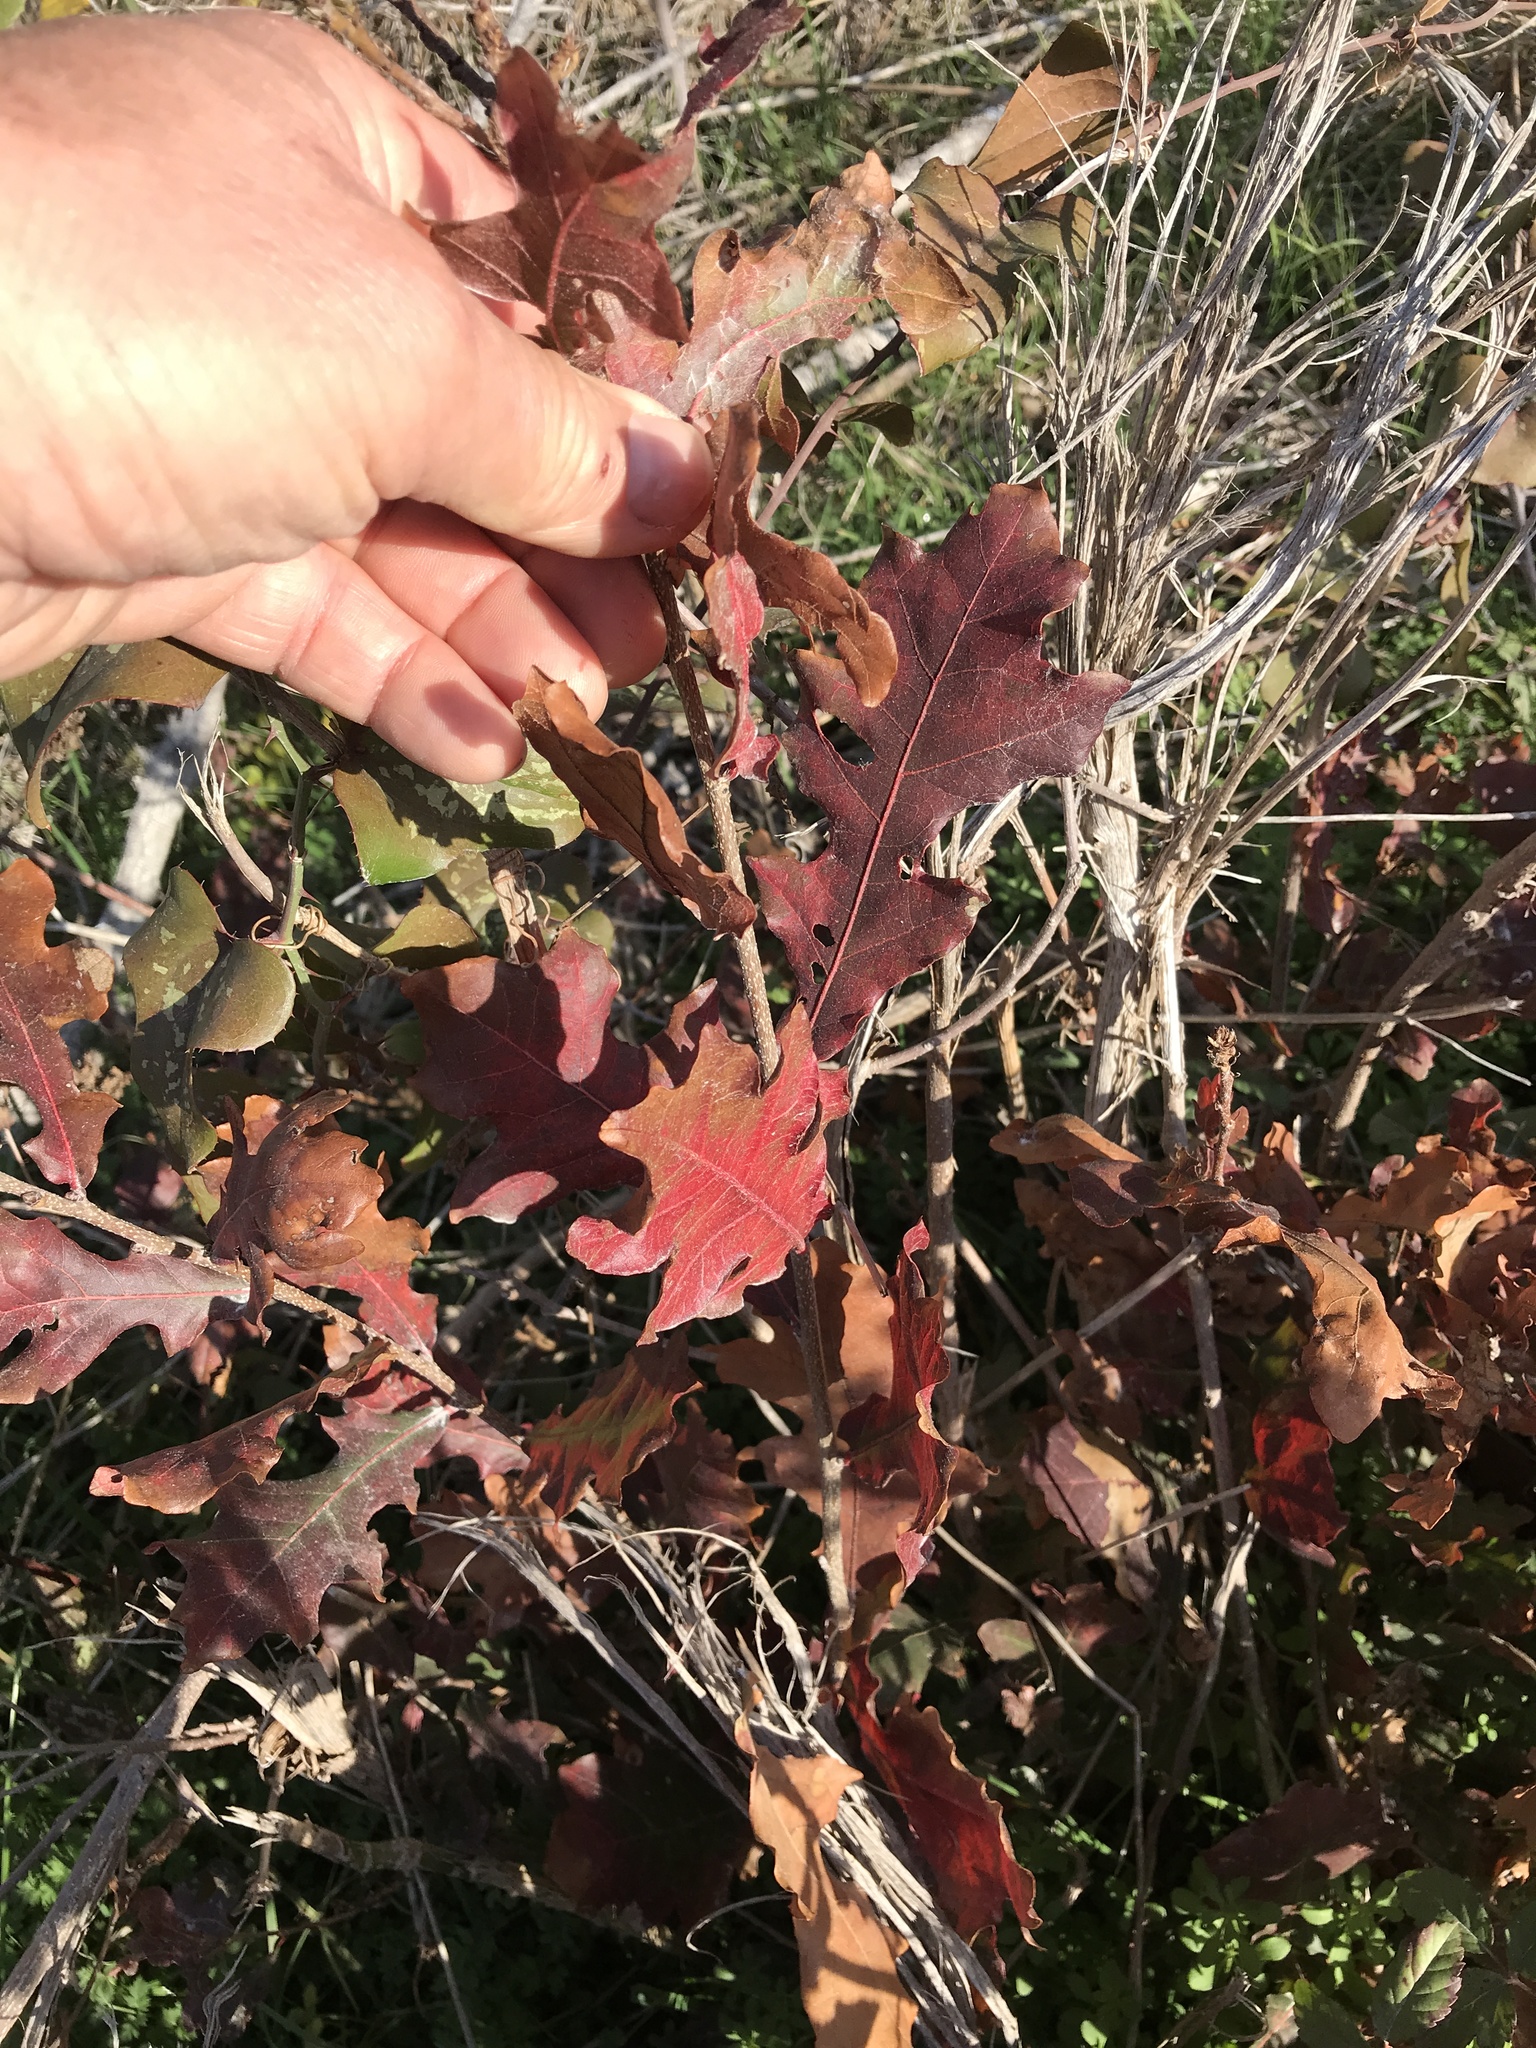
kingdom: Plantae
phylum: Tracheophyta
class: Magnoliopsida
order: Fagales
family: Fagaceae
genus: Quercus
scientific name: Quercus sinuata
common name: Durand oak
